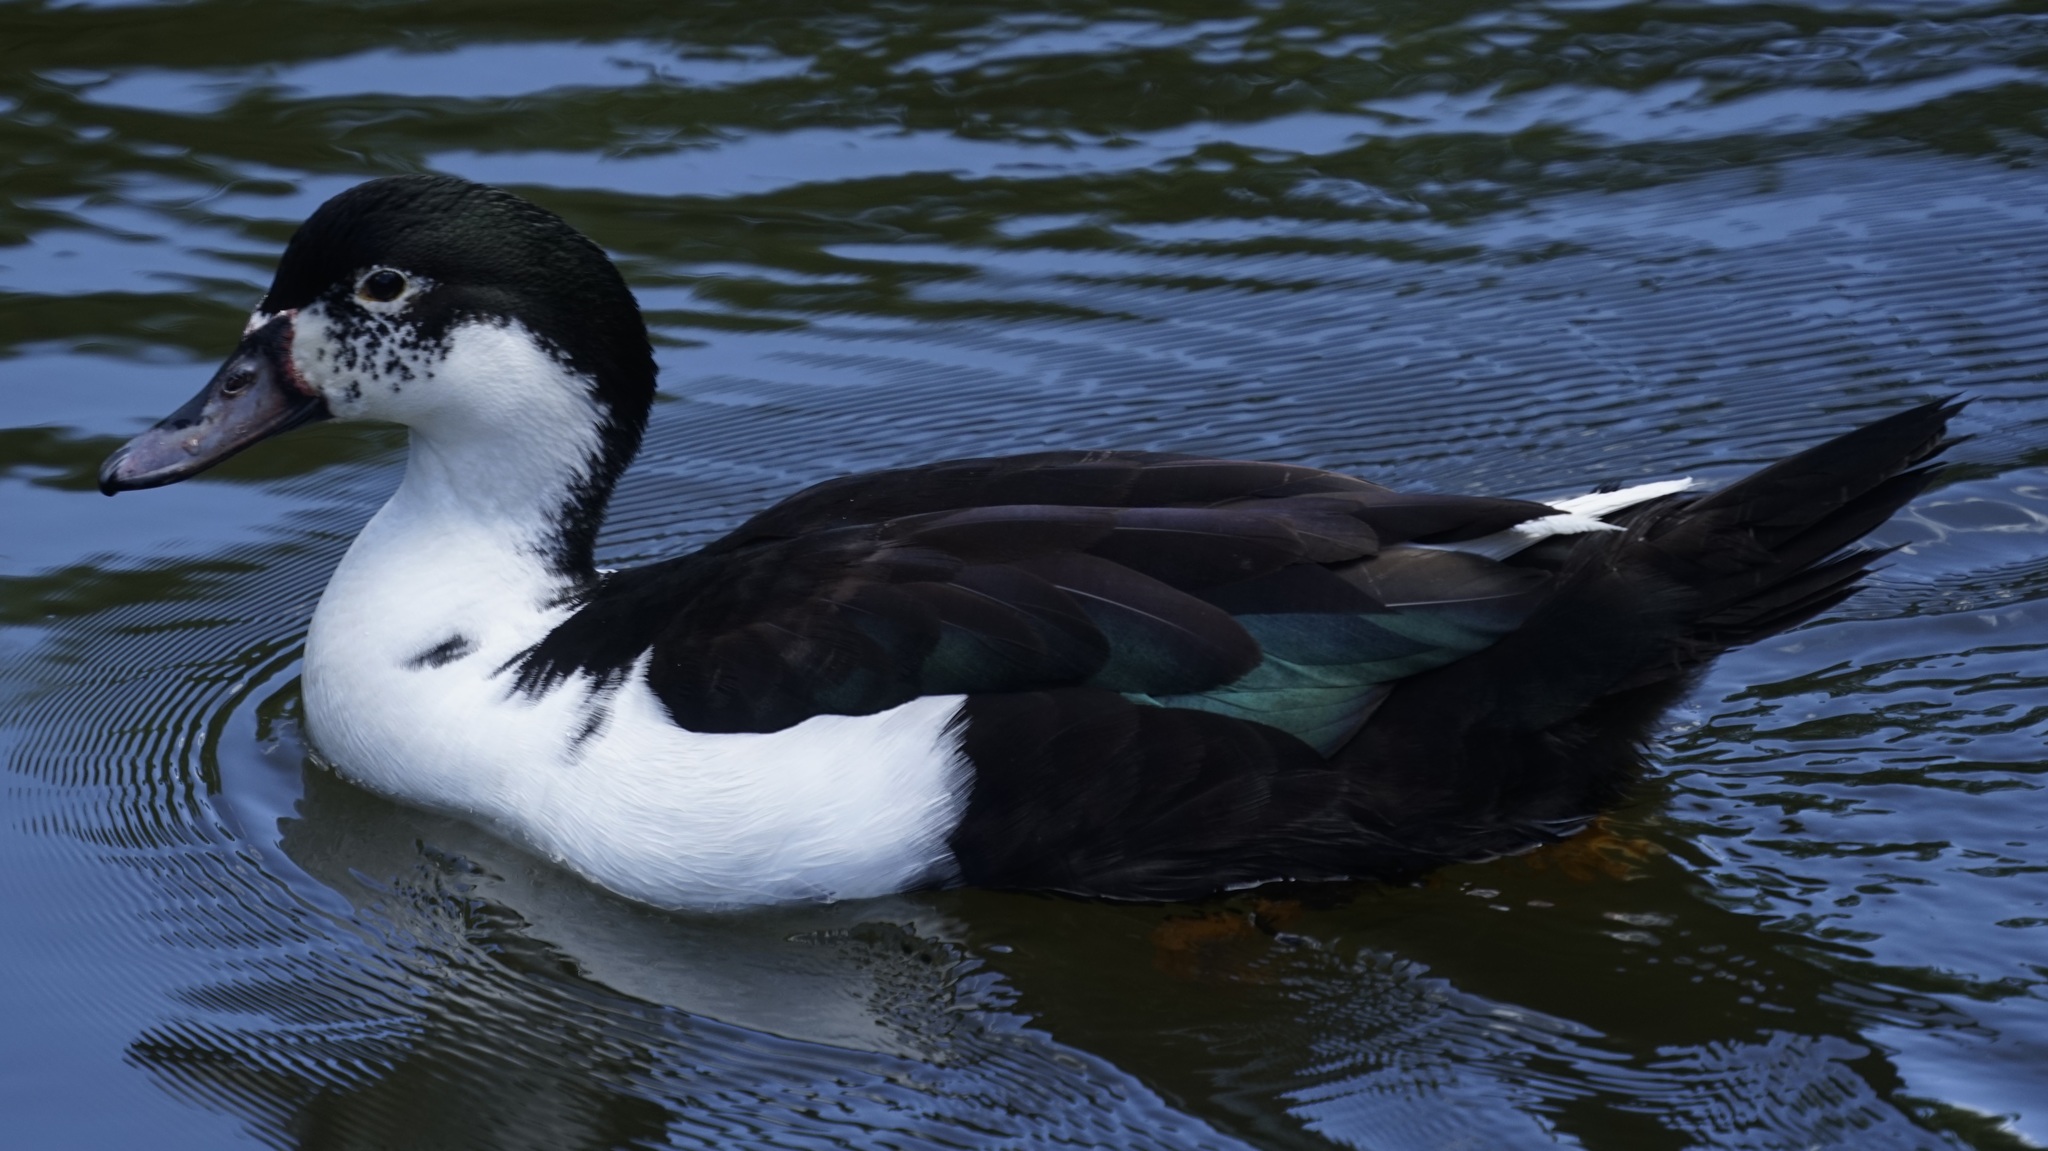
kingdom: Animalia
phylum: Chordata
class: Aves
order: Anseriformes
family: Anatidae
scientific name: Anatidae
